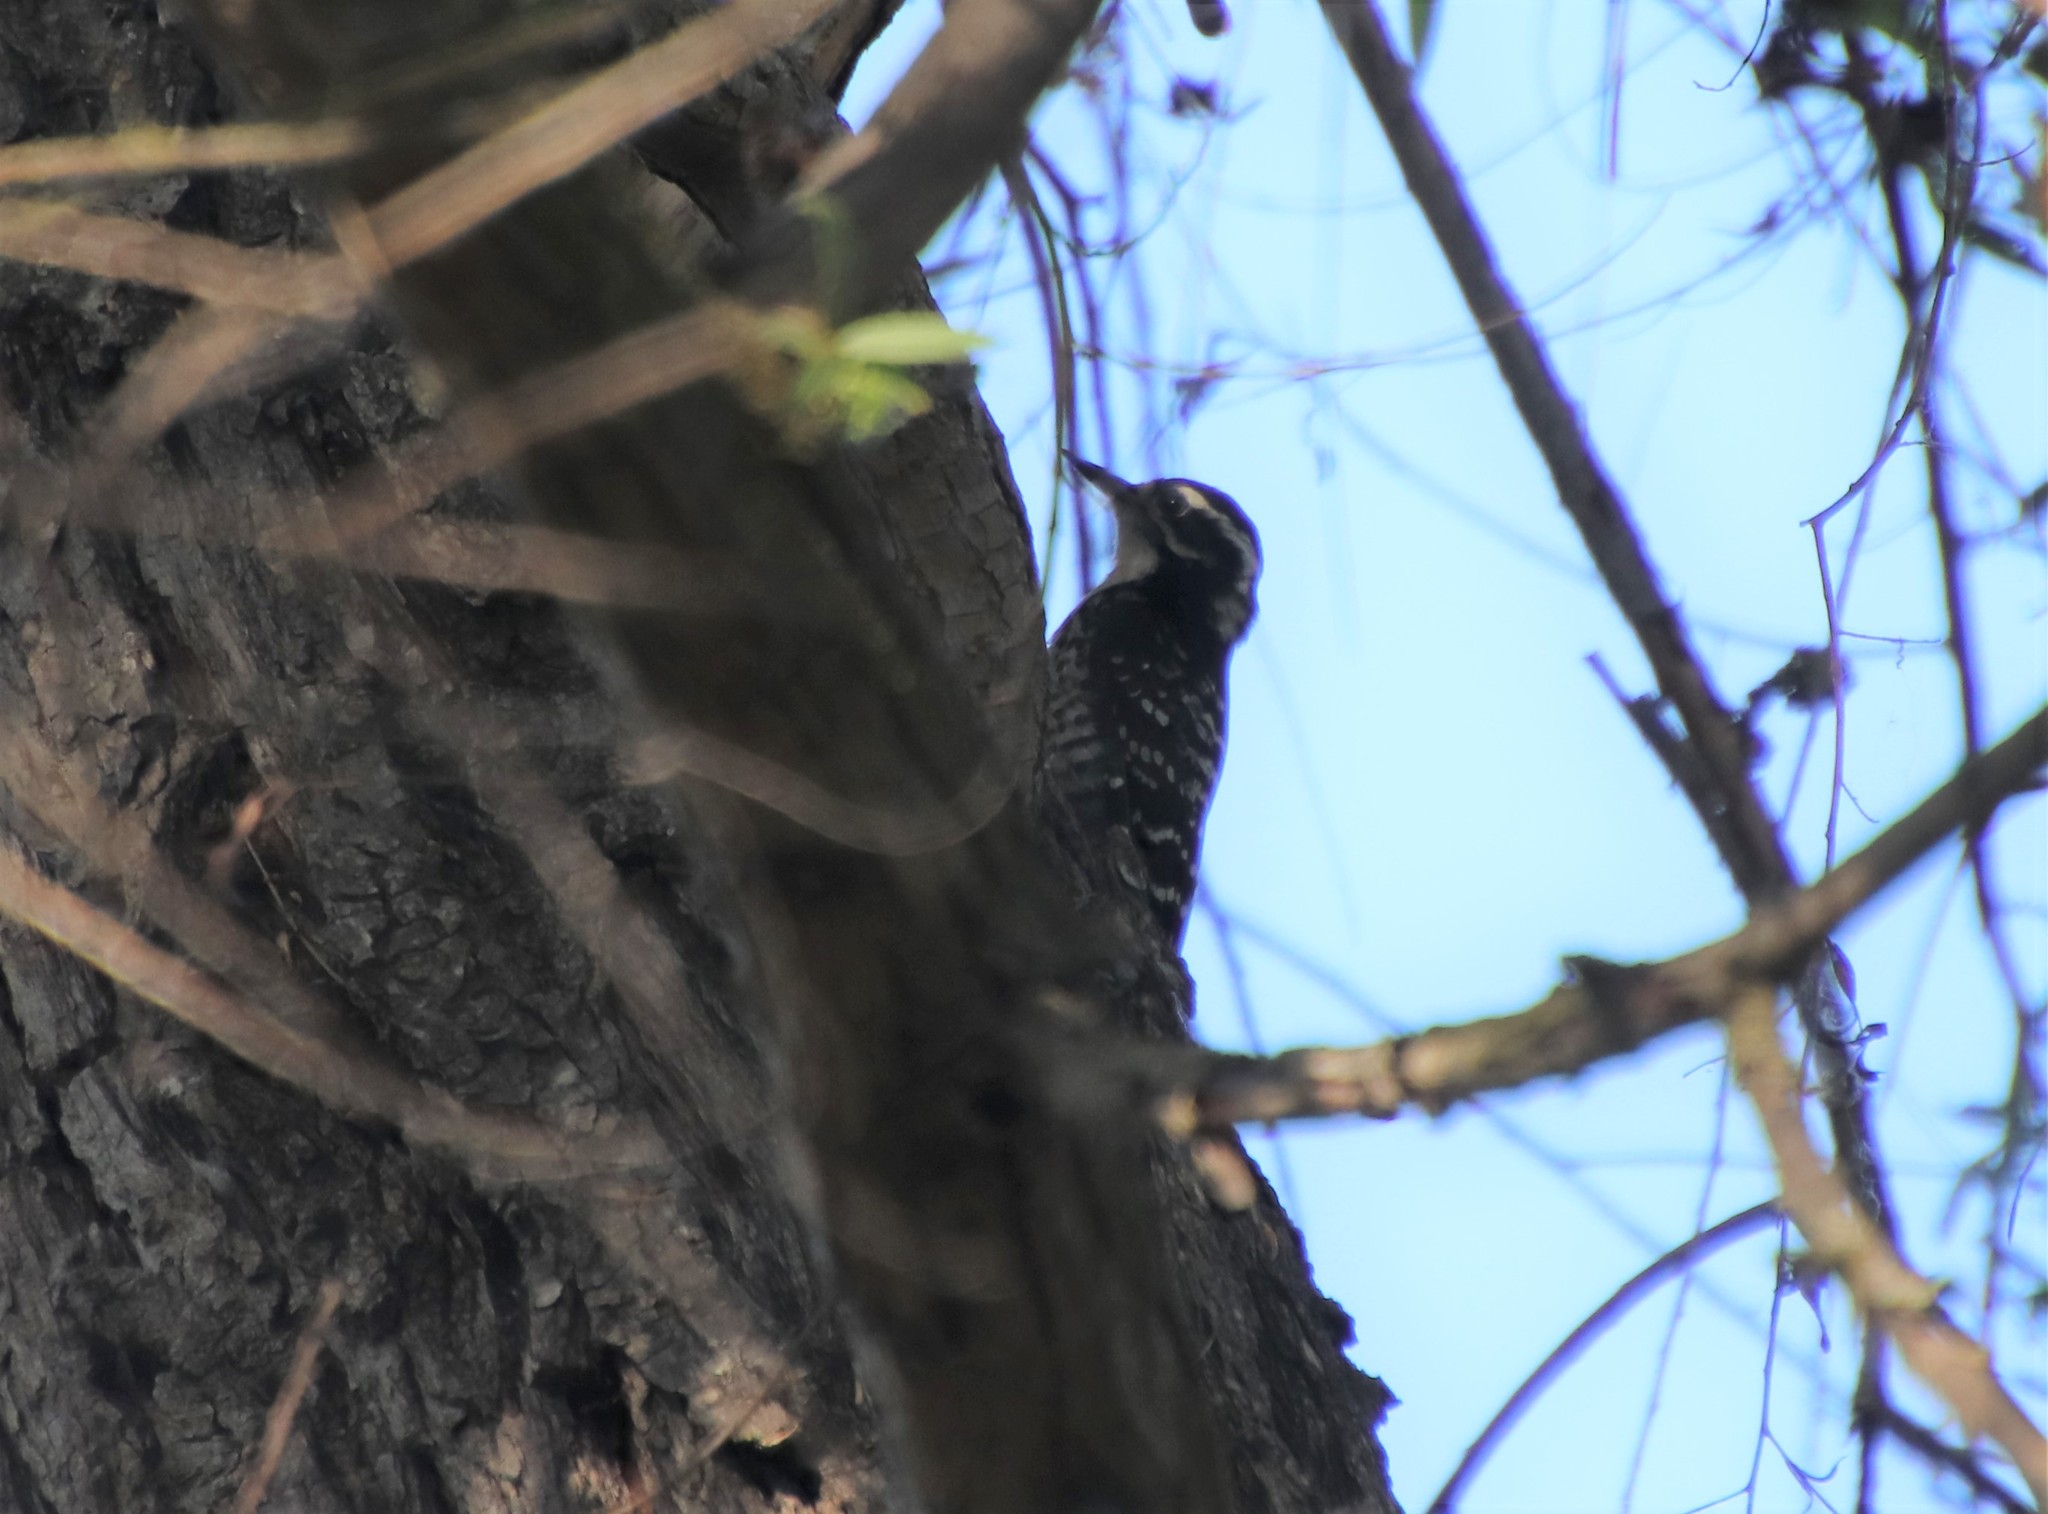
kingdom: Animalia
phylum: Chordata
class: Aves
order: Piciformes
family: Picidae
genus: Dryobates
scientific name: Dryobates nuttallii
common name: Nuttall's woodpecker
